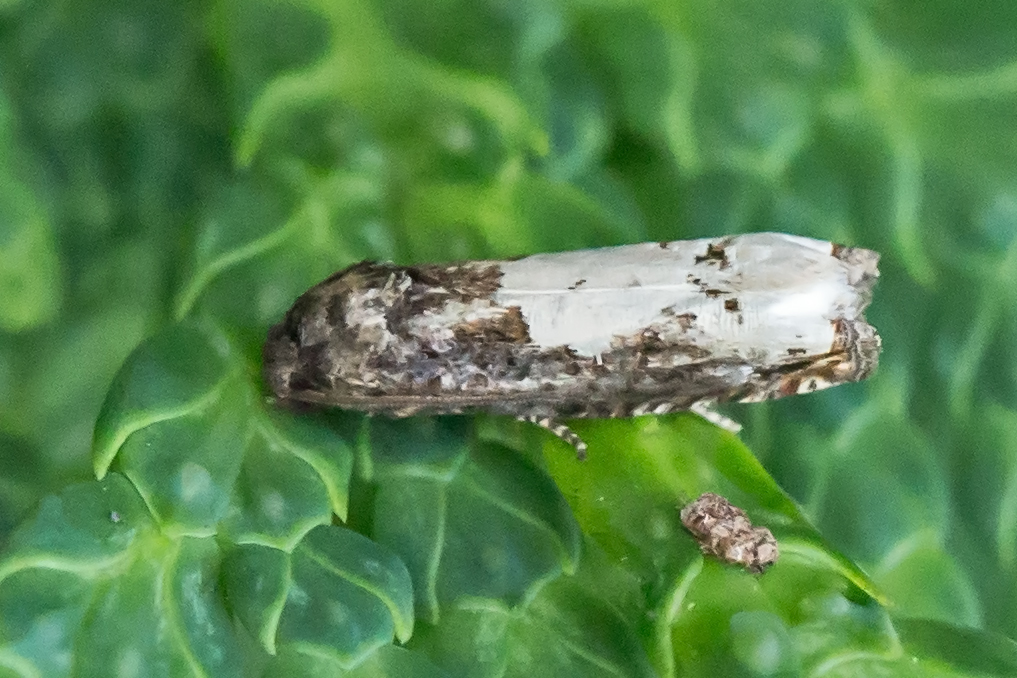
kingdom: Animalia
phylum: Arthropoda
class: Insecta
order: Lepidoptera
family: Tortricidae
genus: Epiblema
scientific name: Epiblema dorsisuffusana
